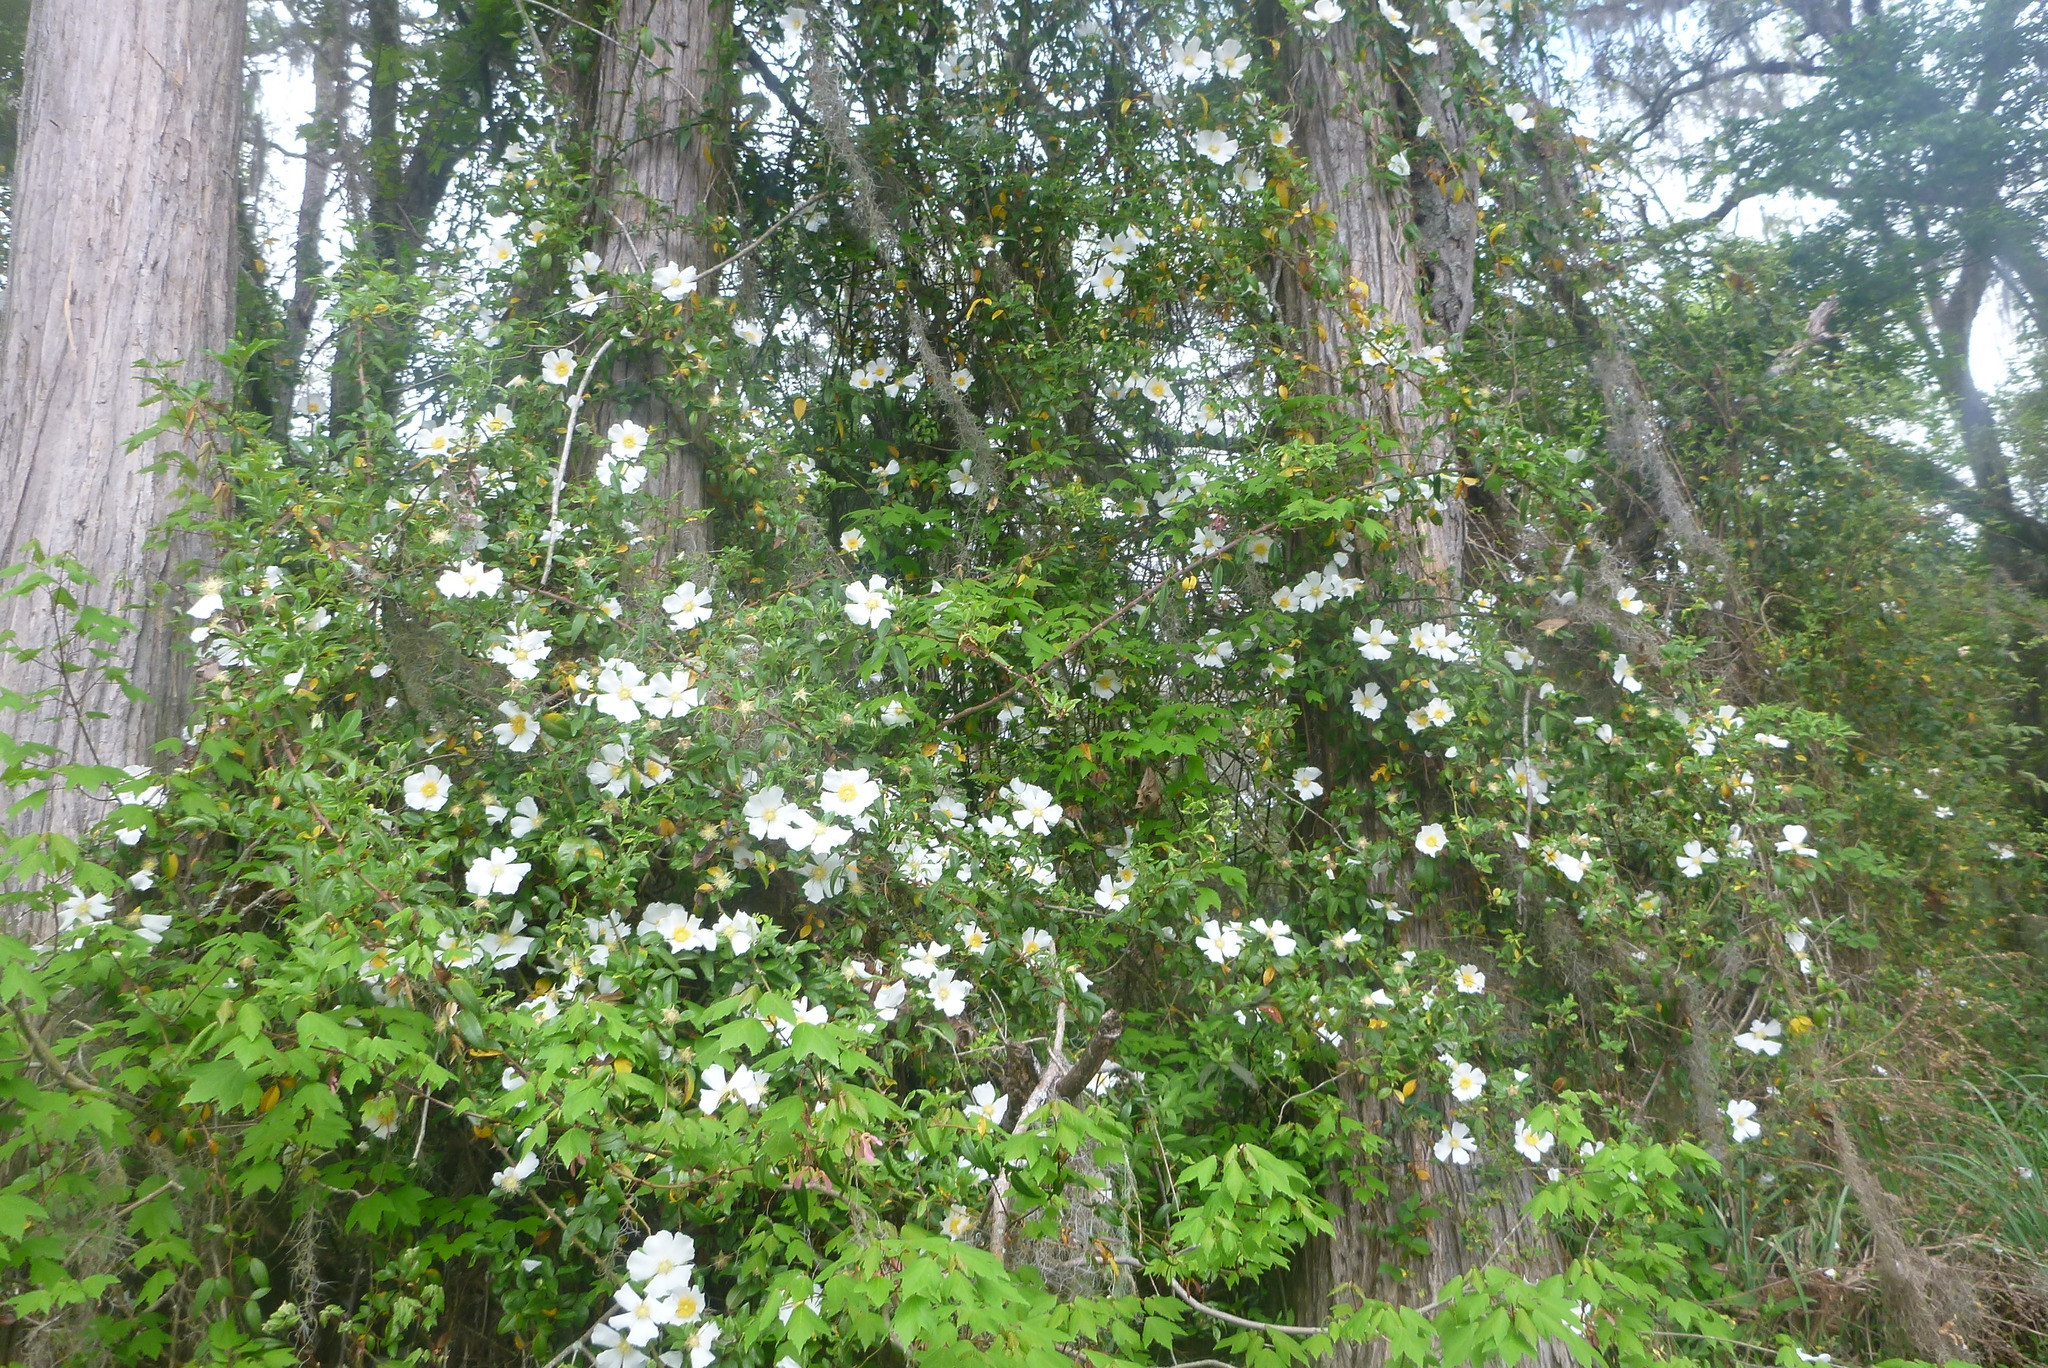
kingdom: Plantae
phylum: Tracheophyta
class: Magnoliopsida
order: Rosales
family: Rosaceae
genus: Rosa
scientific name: Rosa laevigata
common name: Cherokee rose
